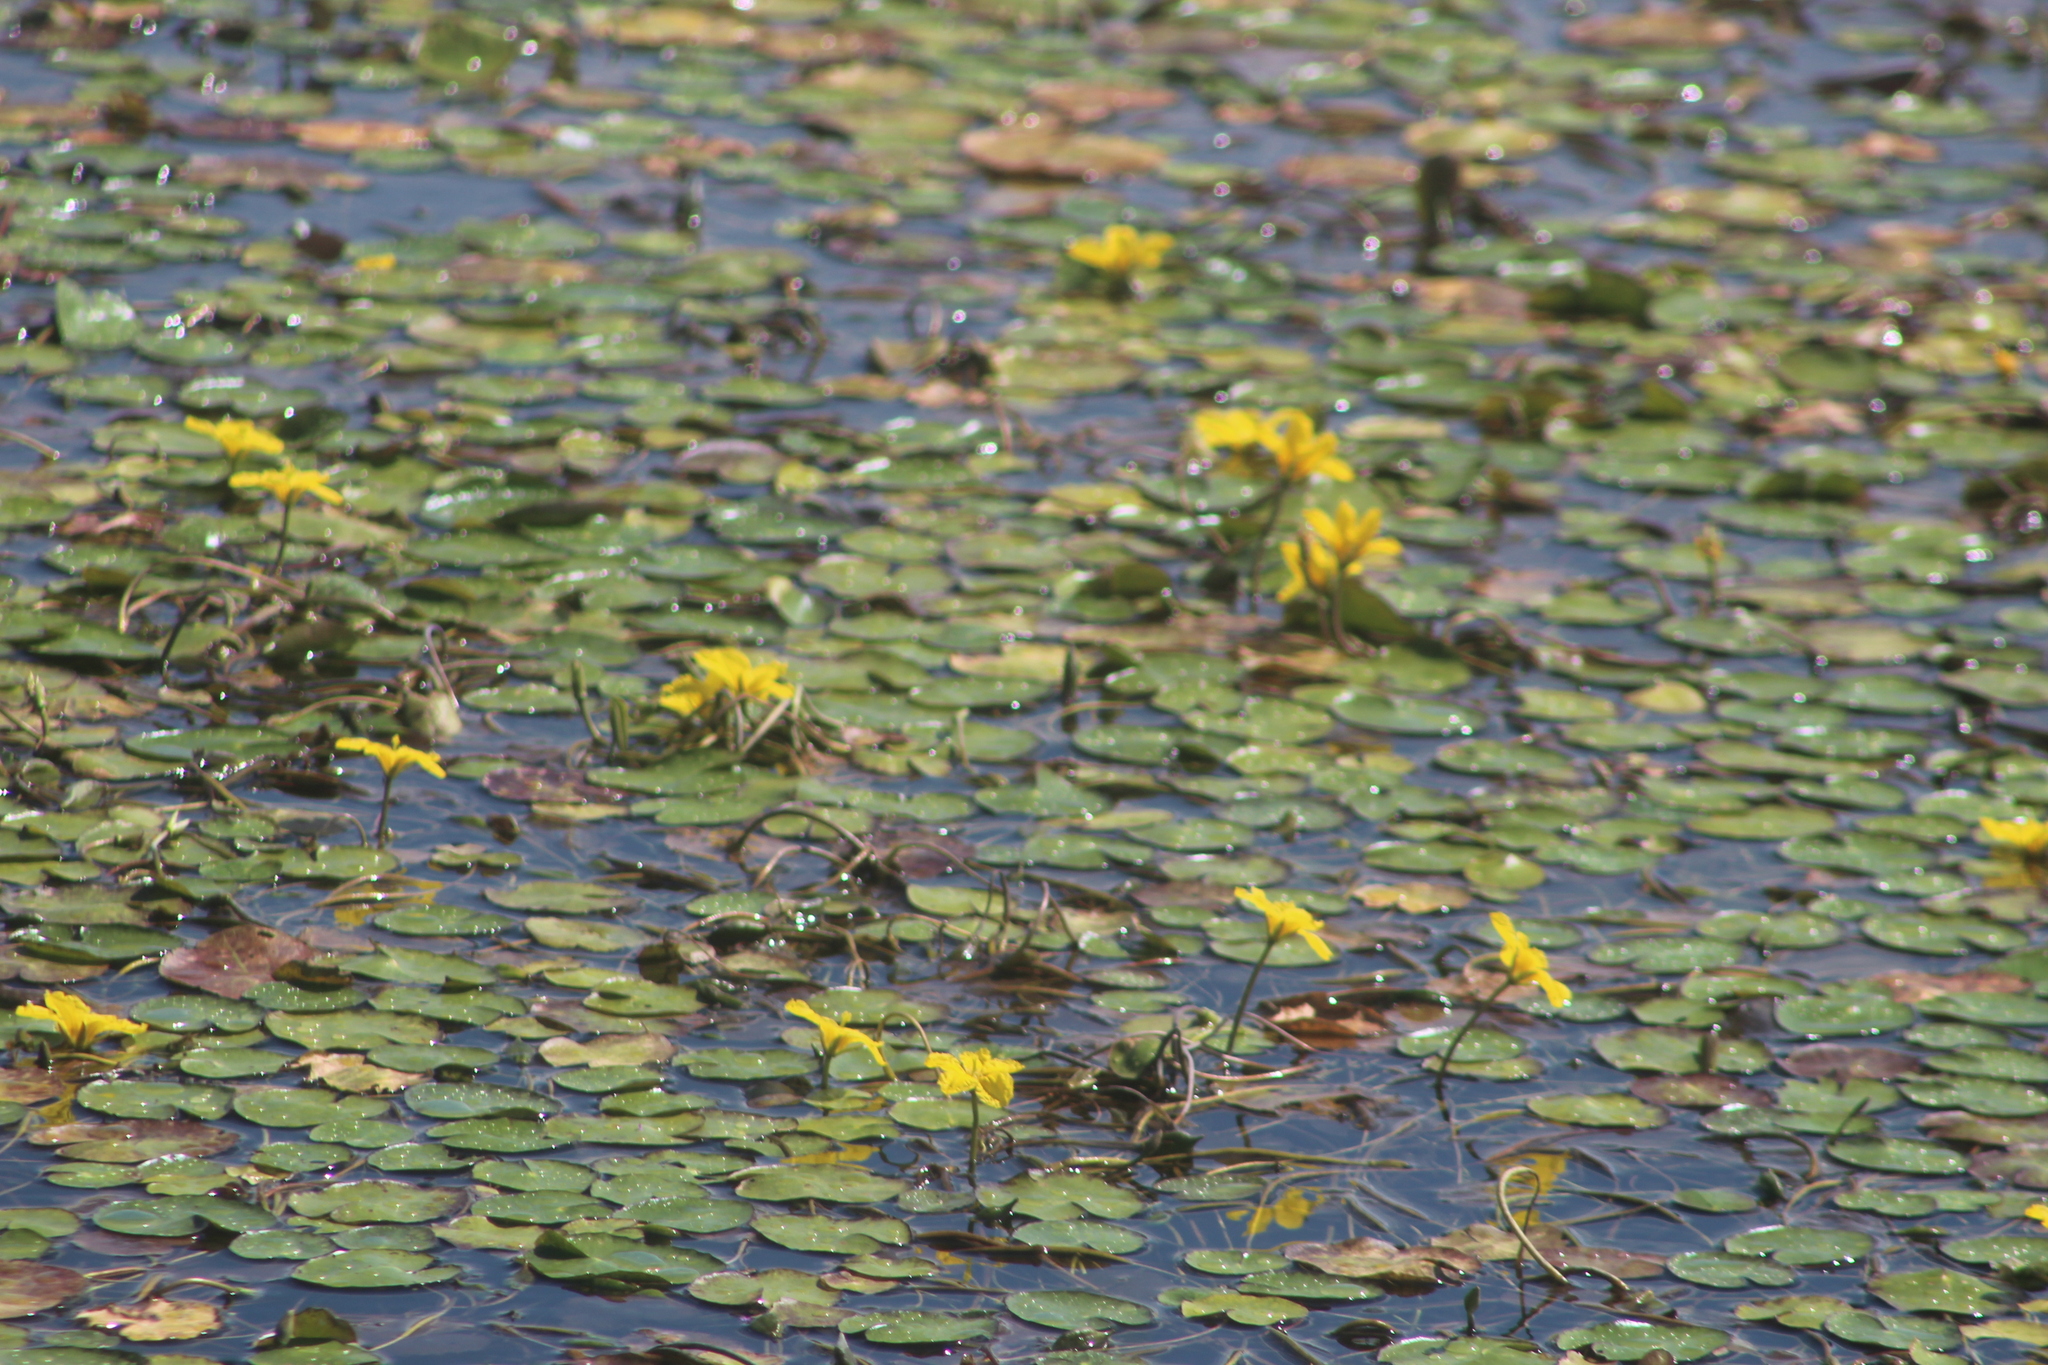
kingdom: Plantae
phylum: Tracheophyta
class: Magnoliopsida
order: Asterales
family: Menyanthaceae
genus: Nymphoides
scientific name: Nymphoides peltata
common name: Fringed water-lily
